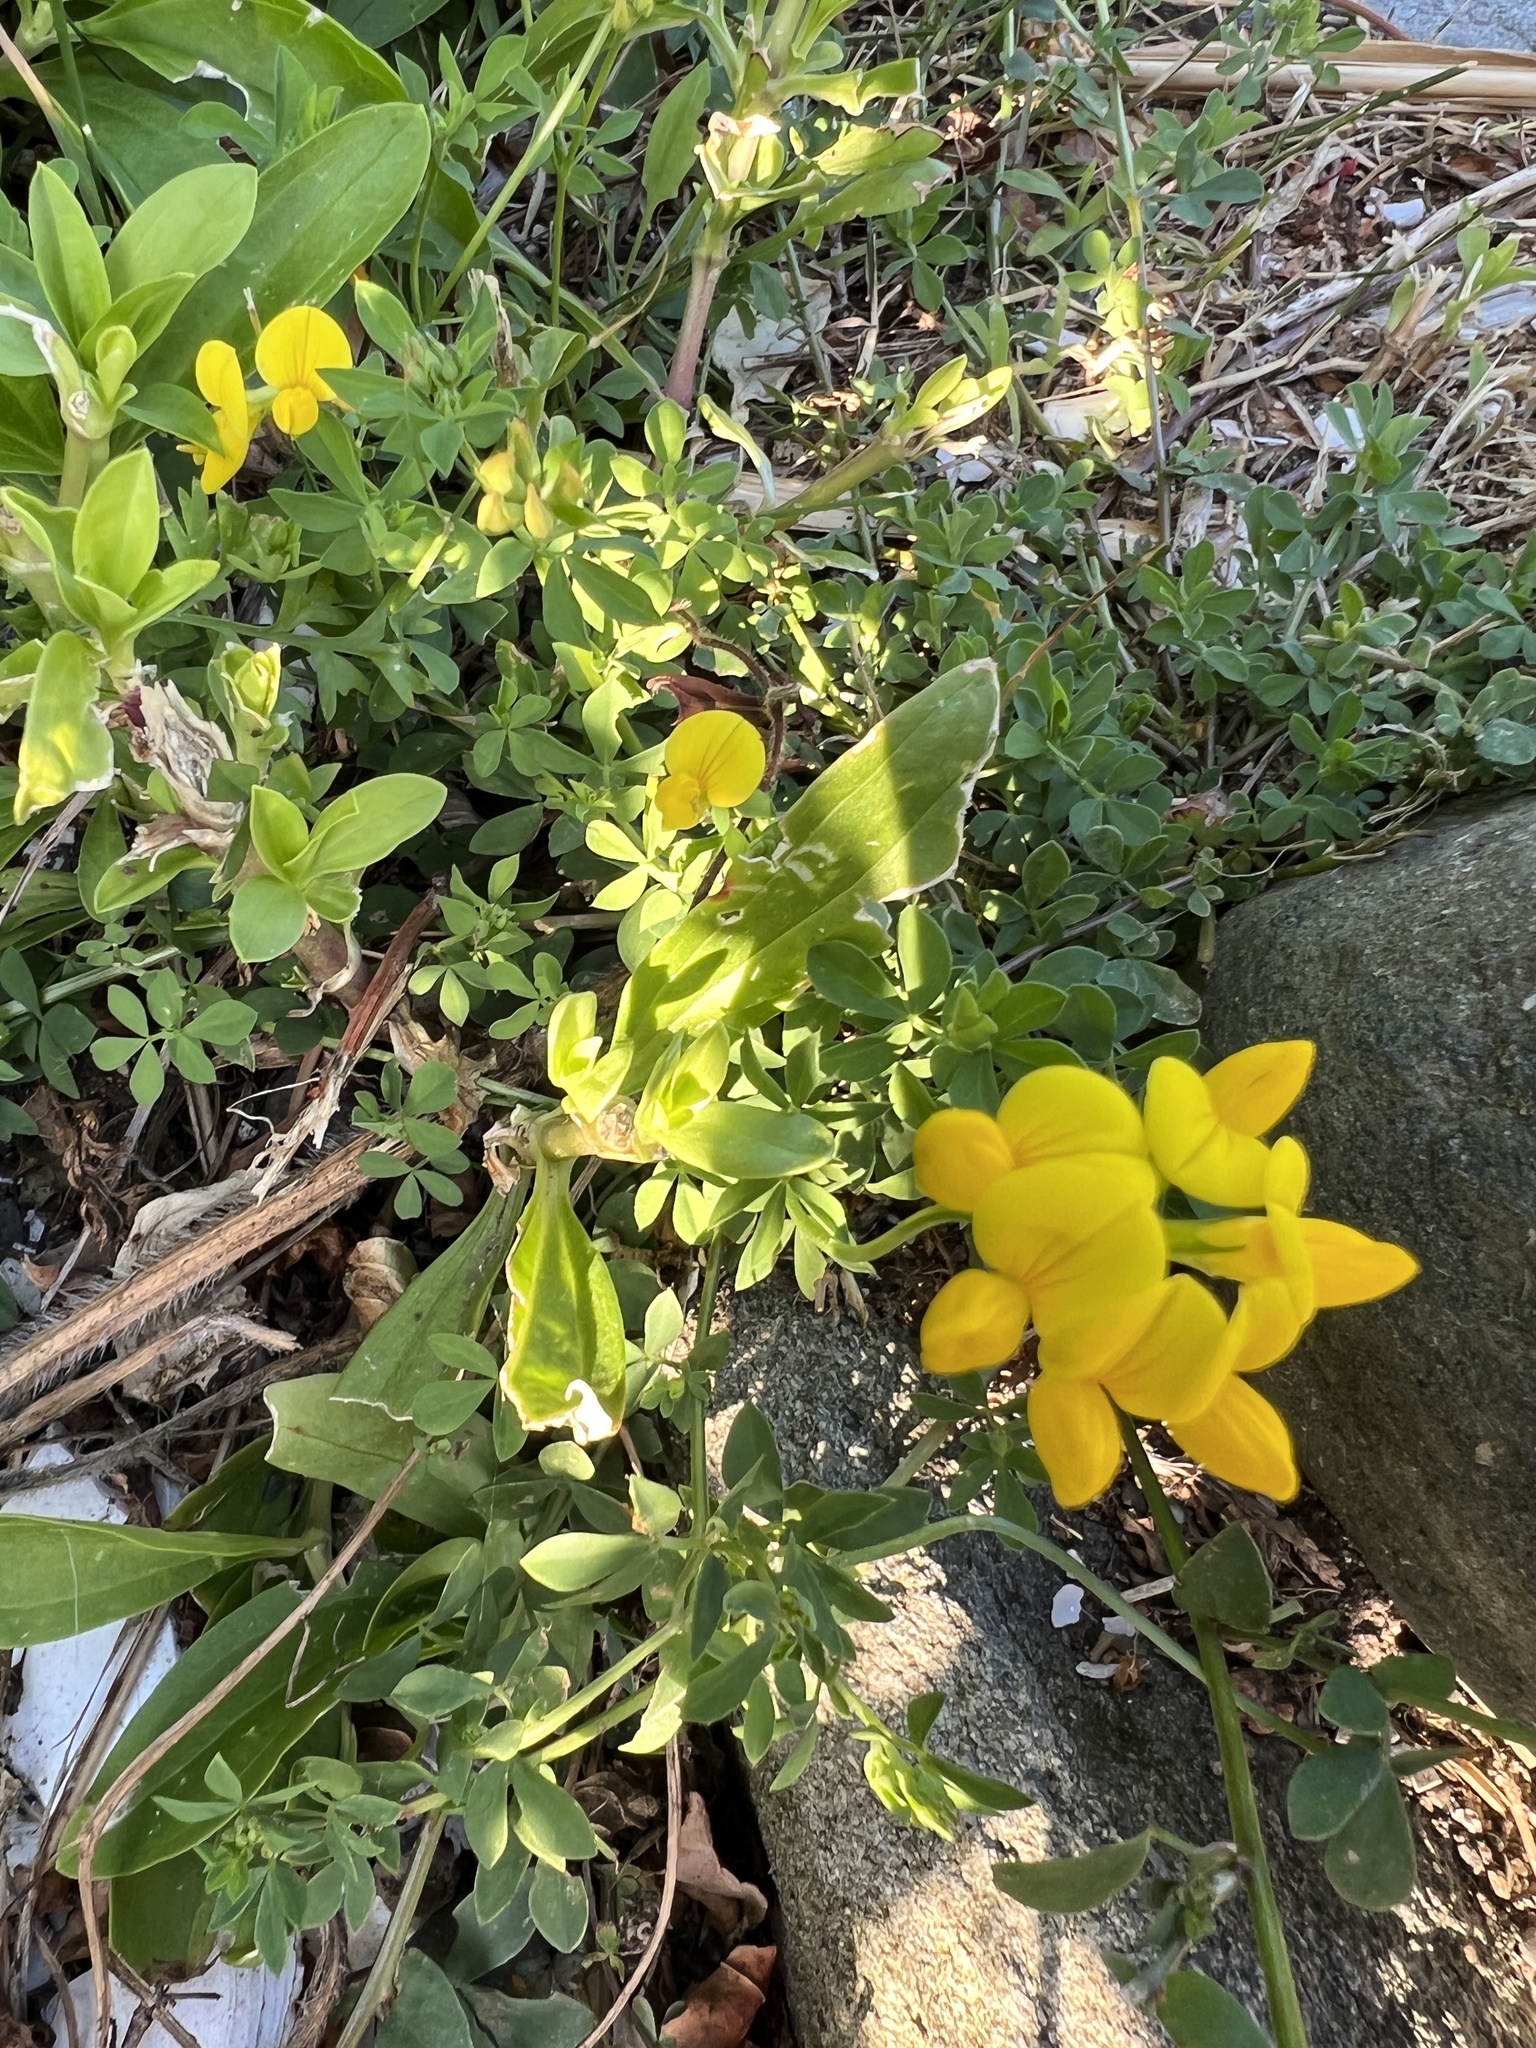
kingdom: Plantae
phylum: Tracheophyta
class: Magnoliopsida
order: Fabales
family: Fabaceae
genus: Lotus
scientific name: Lotus corniculatus
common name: Common bird's-foot-trefoil
